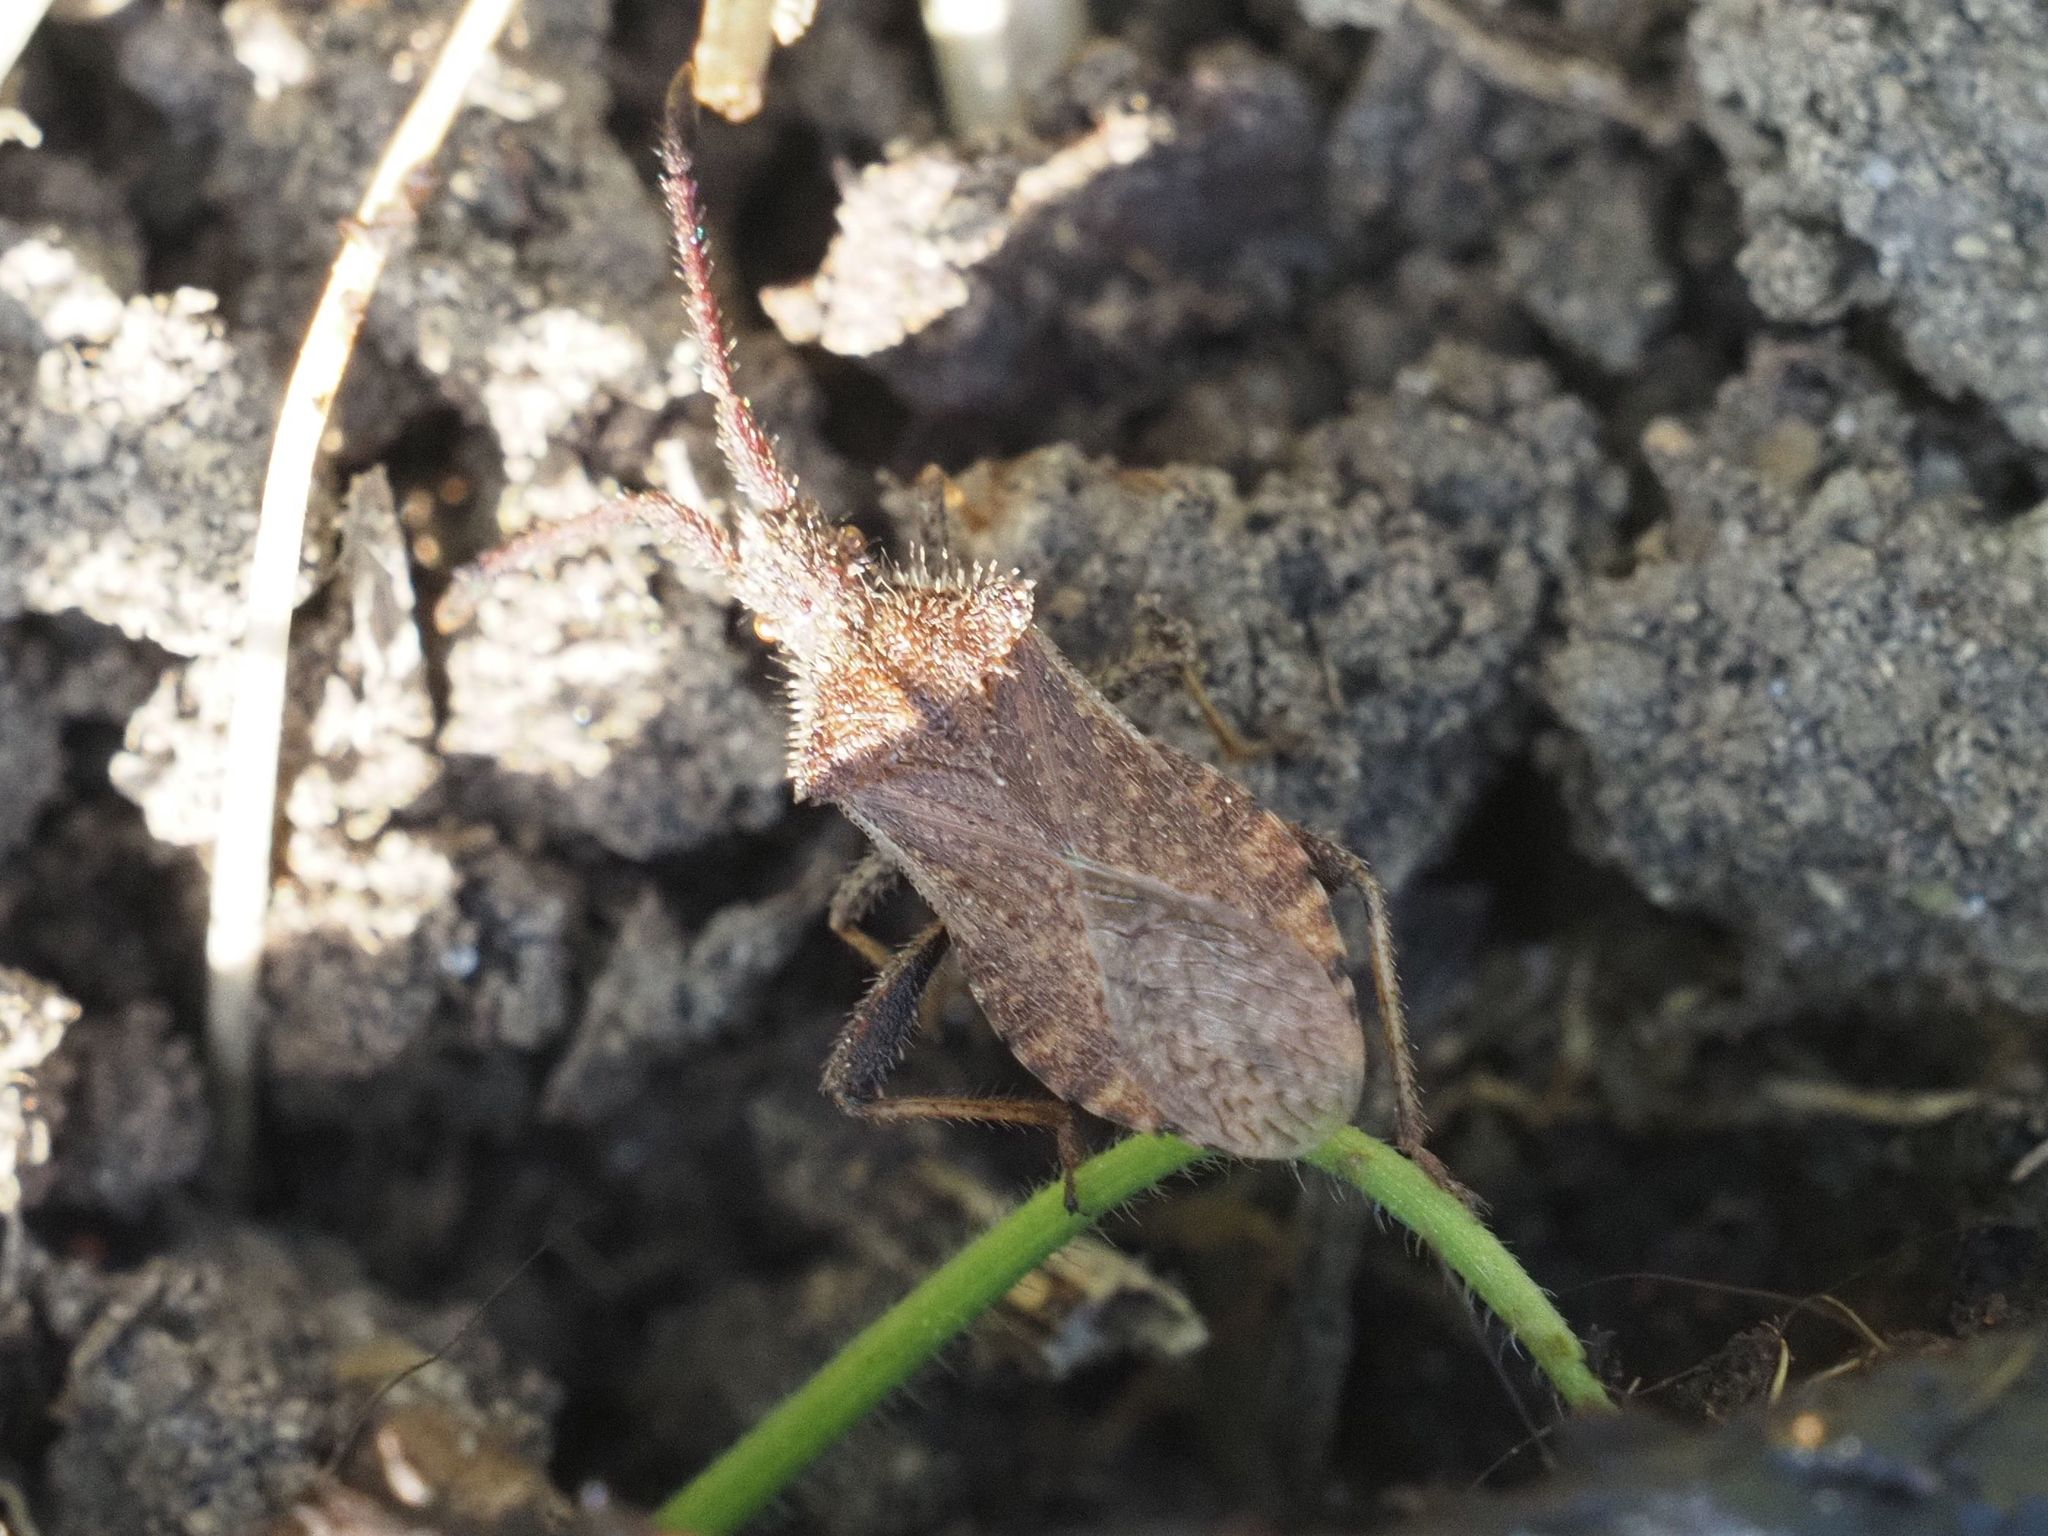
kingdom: Animalia
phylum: Arthropoda
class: Insecta
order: Hemiptera
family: Coreidae
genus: Coriomeris
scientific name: Coriomeris denticulatus
